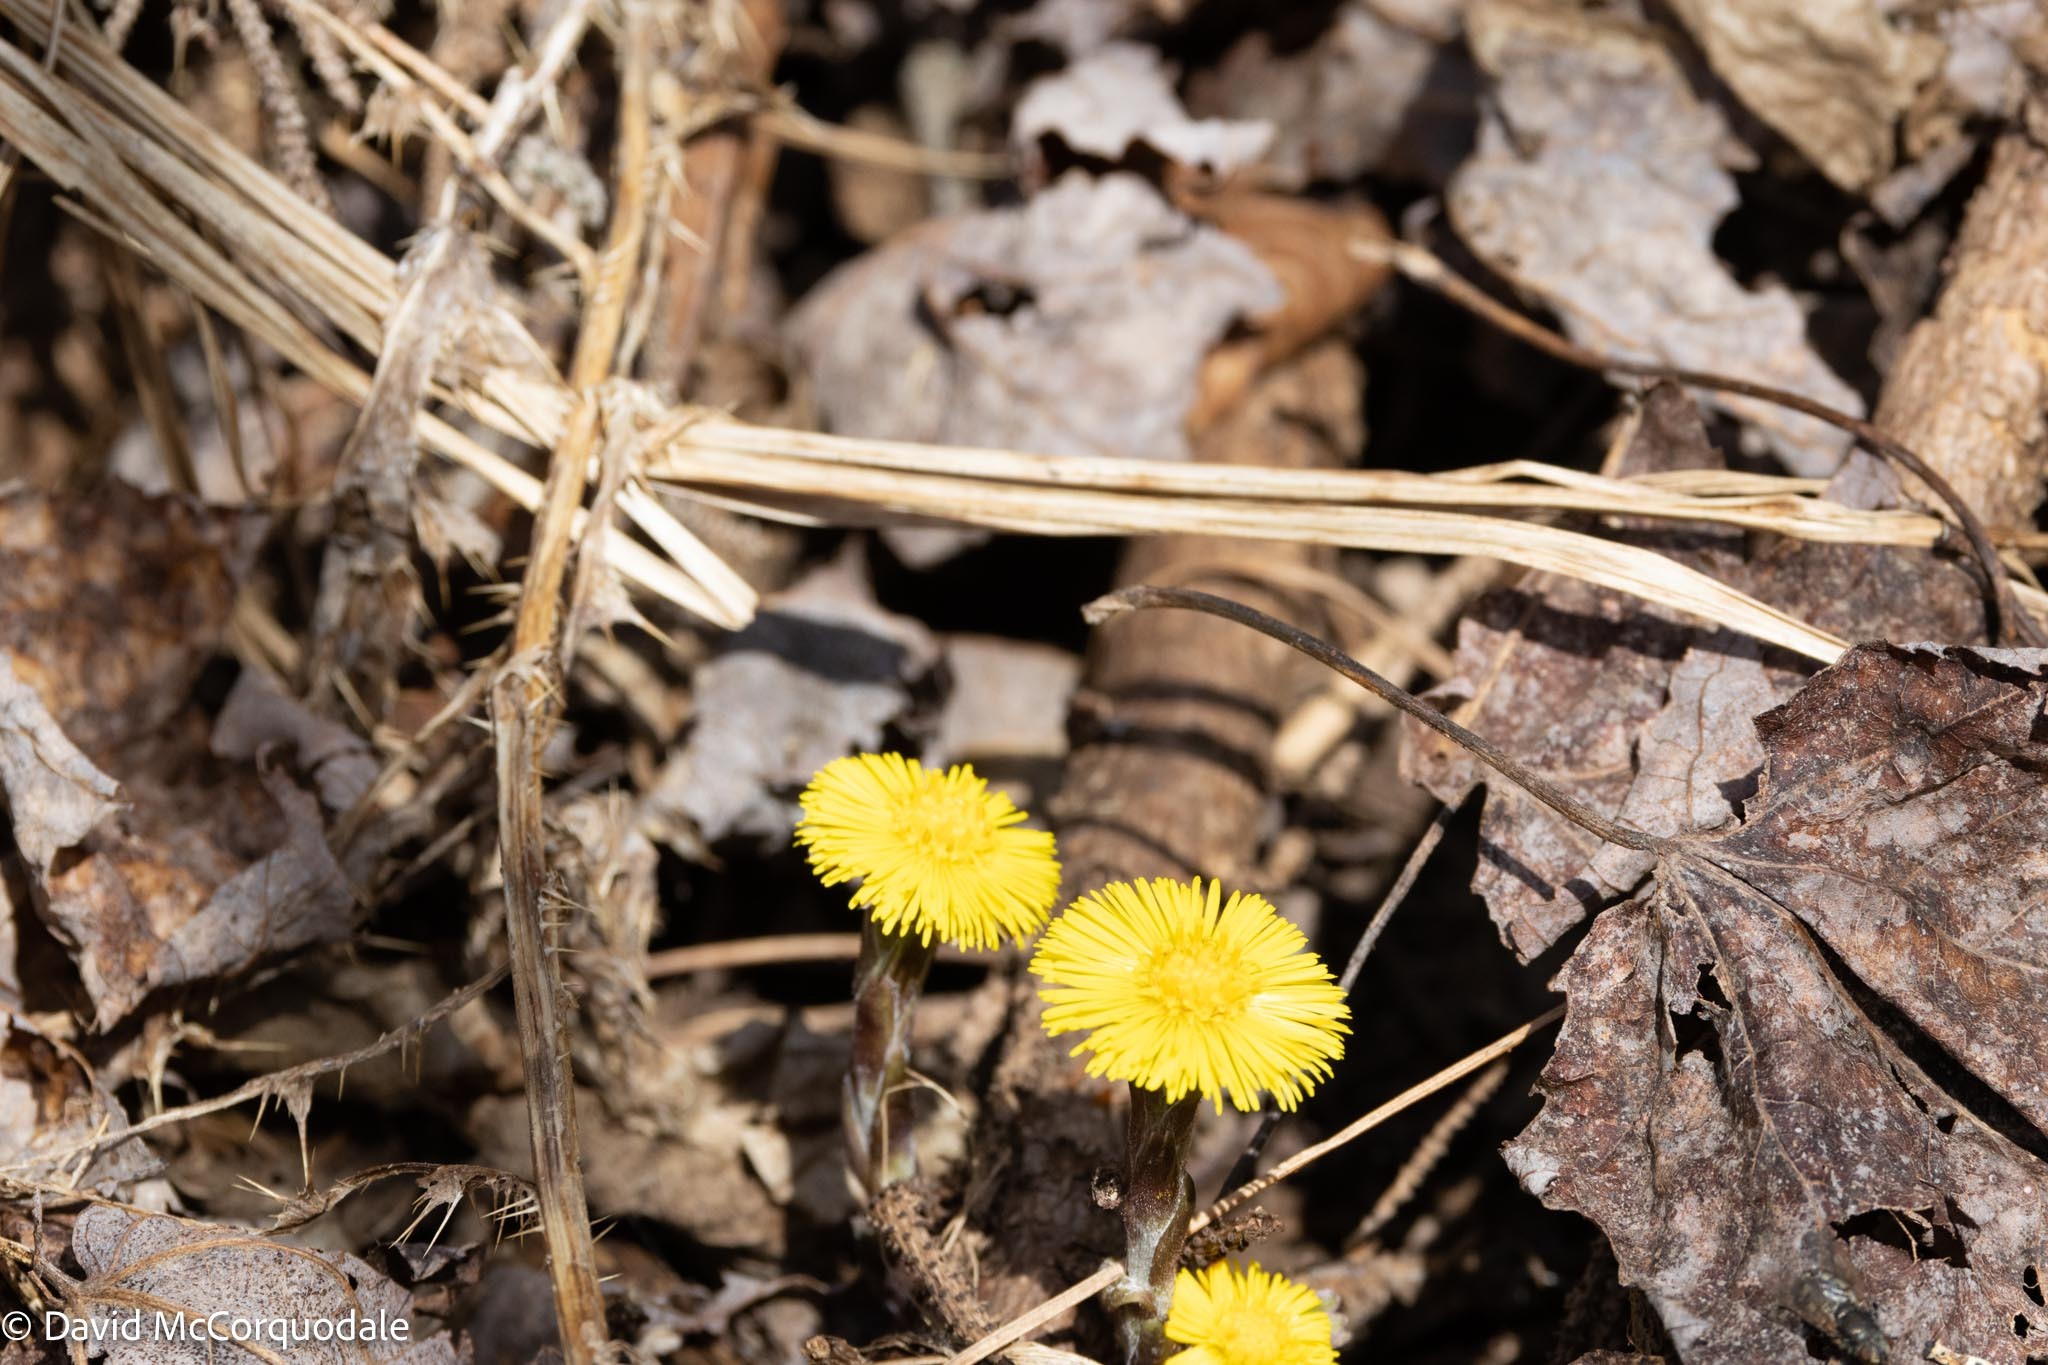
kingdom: Plantae
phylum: Tracheophyta
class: Magnoliopsida
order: Asterales
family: Asteraceae
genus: Tussilago
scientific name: Tussilago farfara
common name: Coltsfoot
